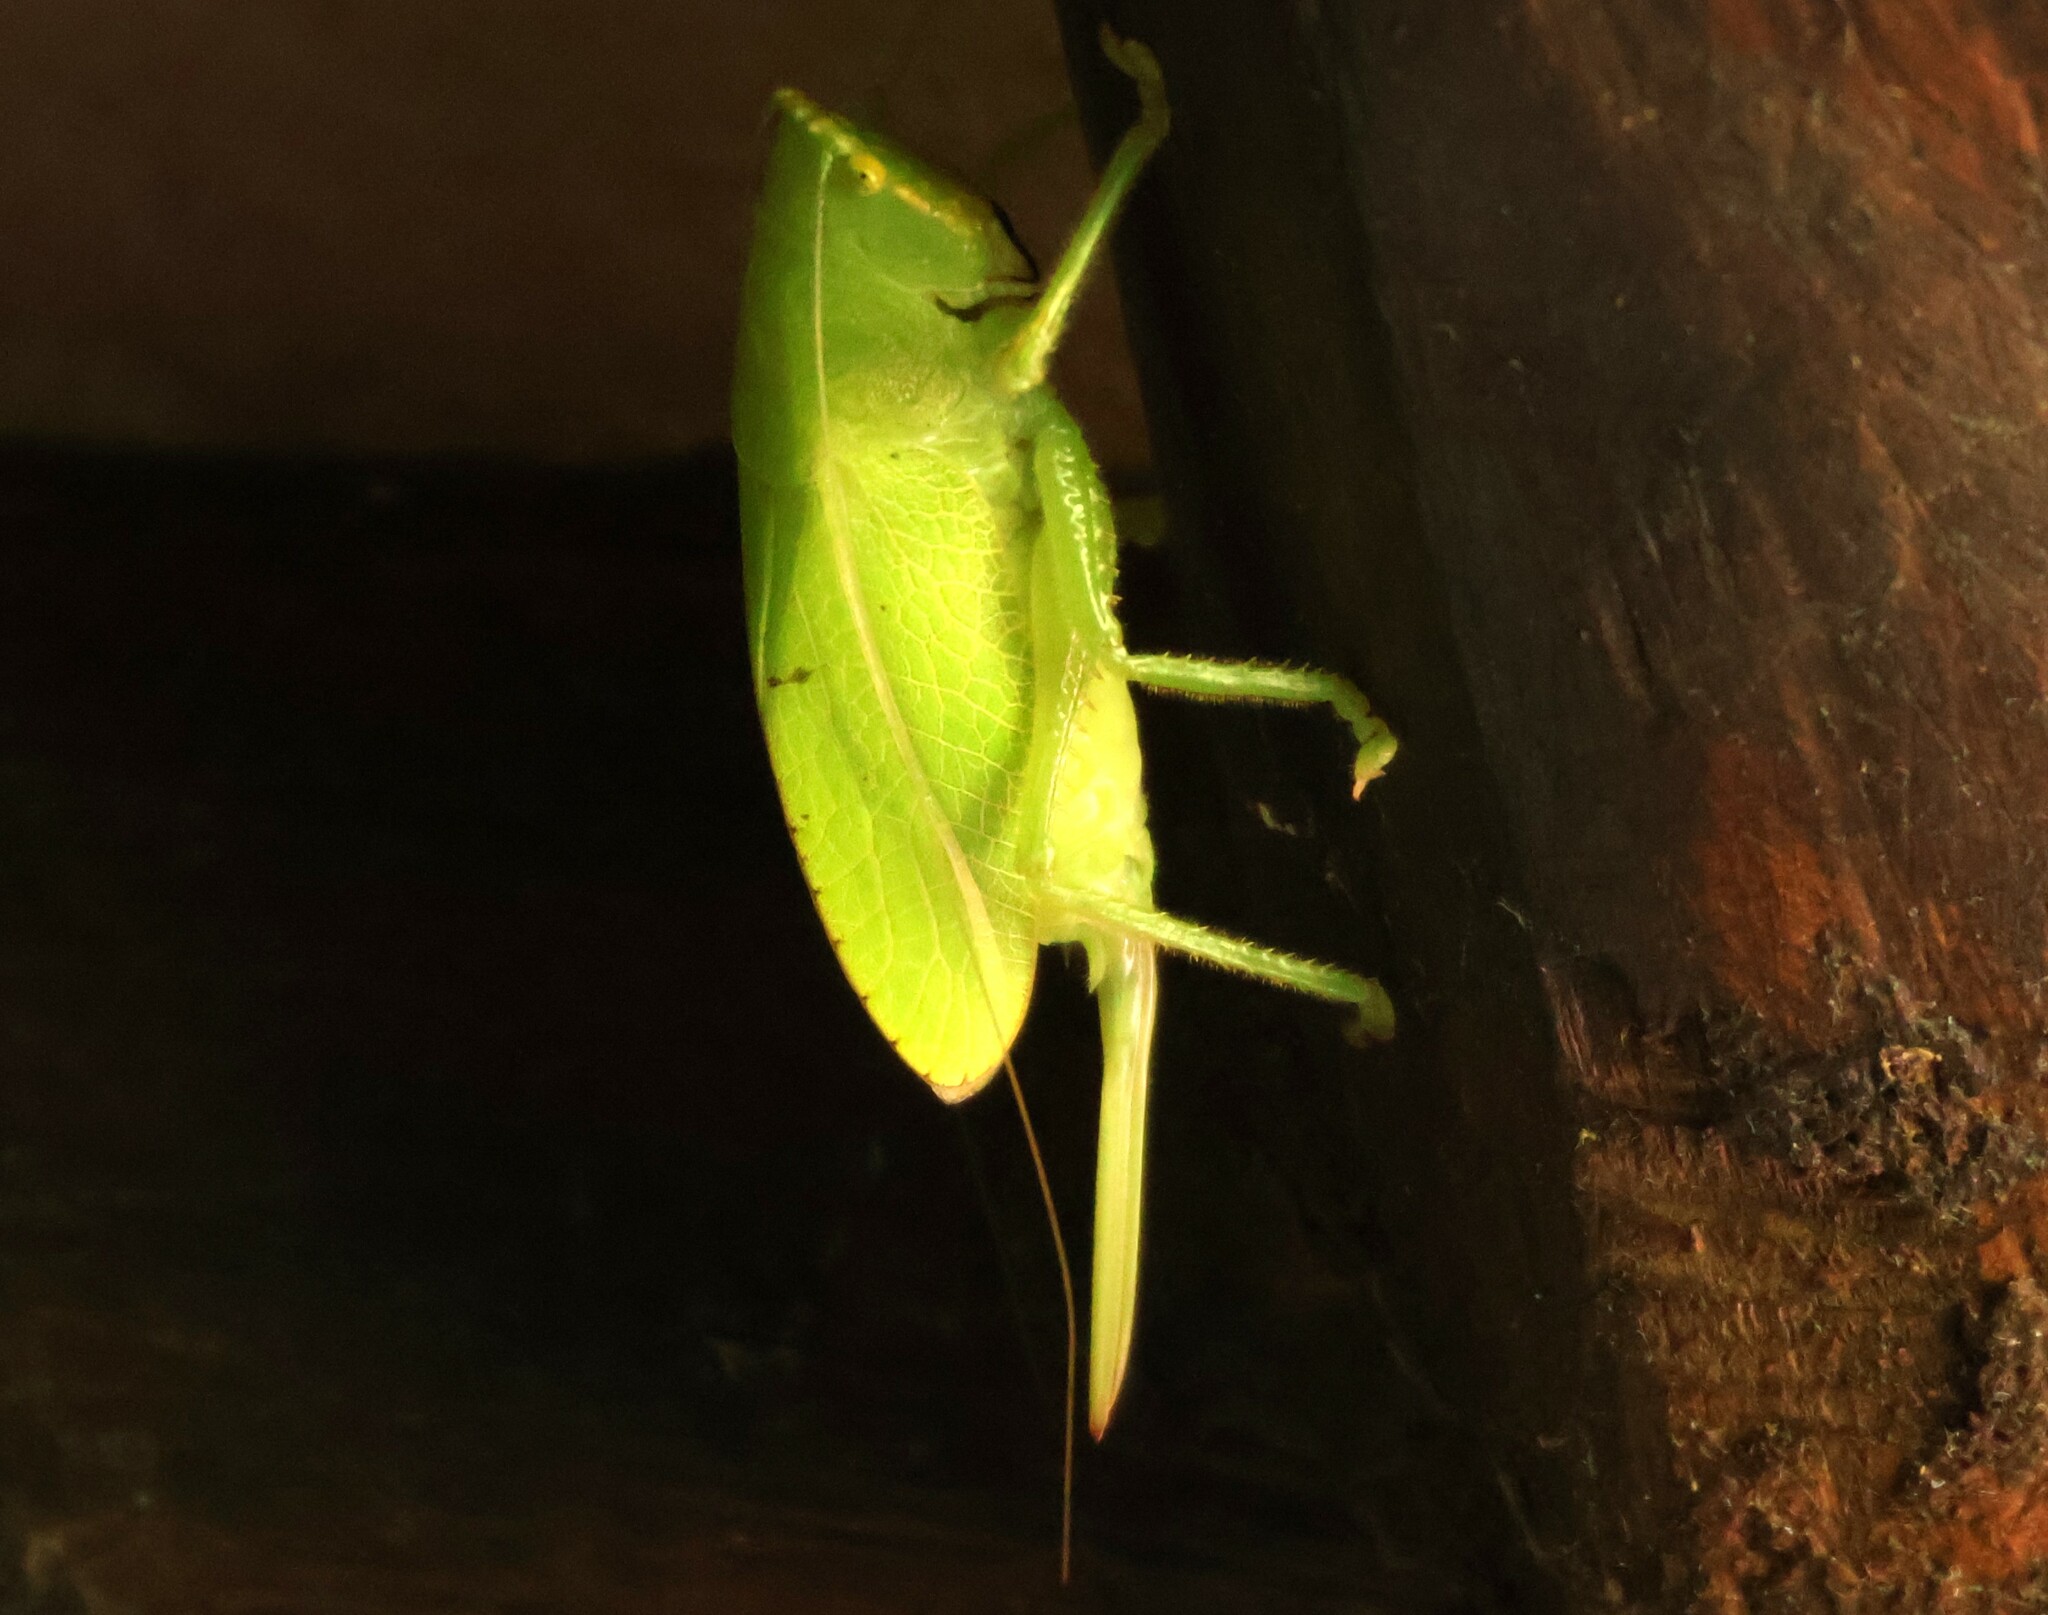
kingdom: Animalia
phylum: Arthropoda
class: Insecta
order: Orthoptera
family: Tettigoniidae
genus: Lirometopum
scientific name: Lirometopum coronatum
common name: Pitbull katydid
